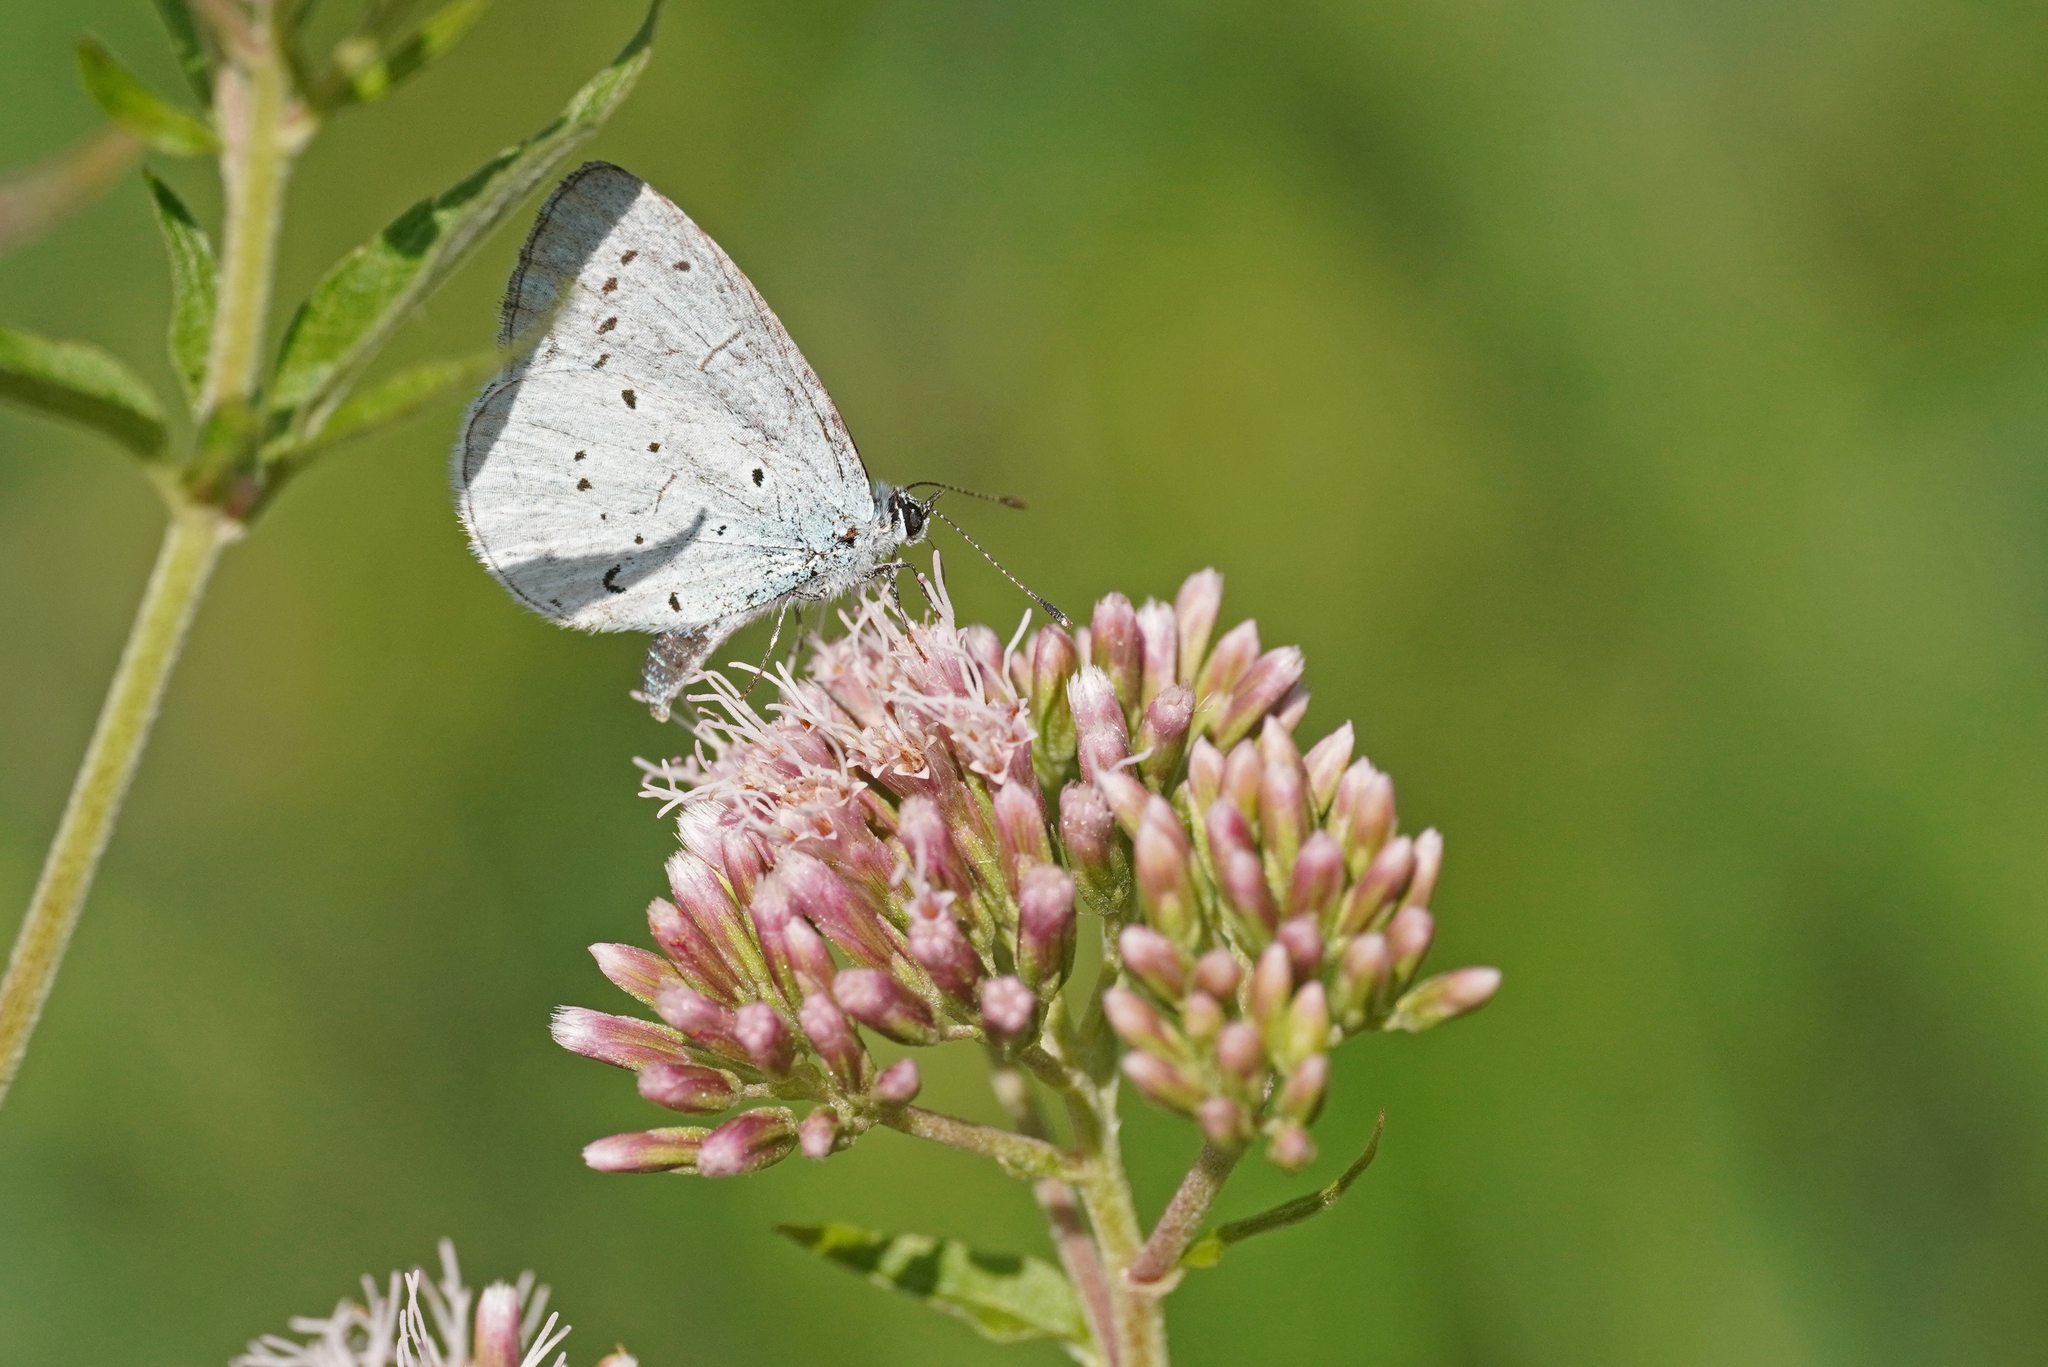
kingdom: Animalia
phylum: Arthropoda
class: Insecta
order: Lepidoptera
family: Lycaenidae
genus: Celastrina
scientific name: Celastrina argiolus
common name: Holly blue
